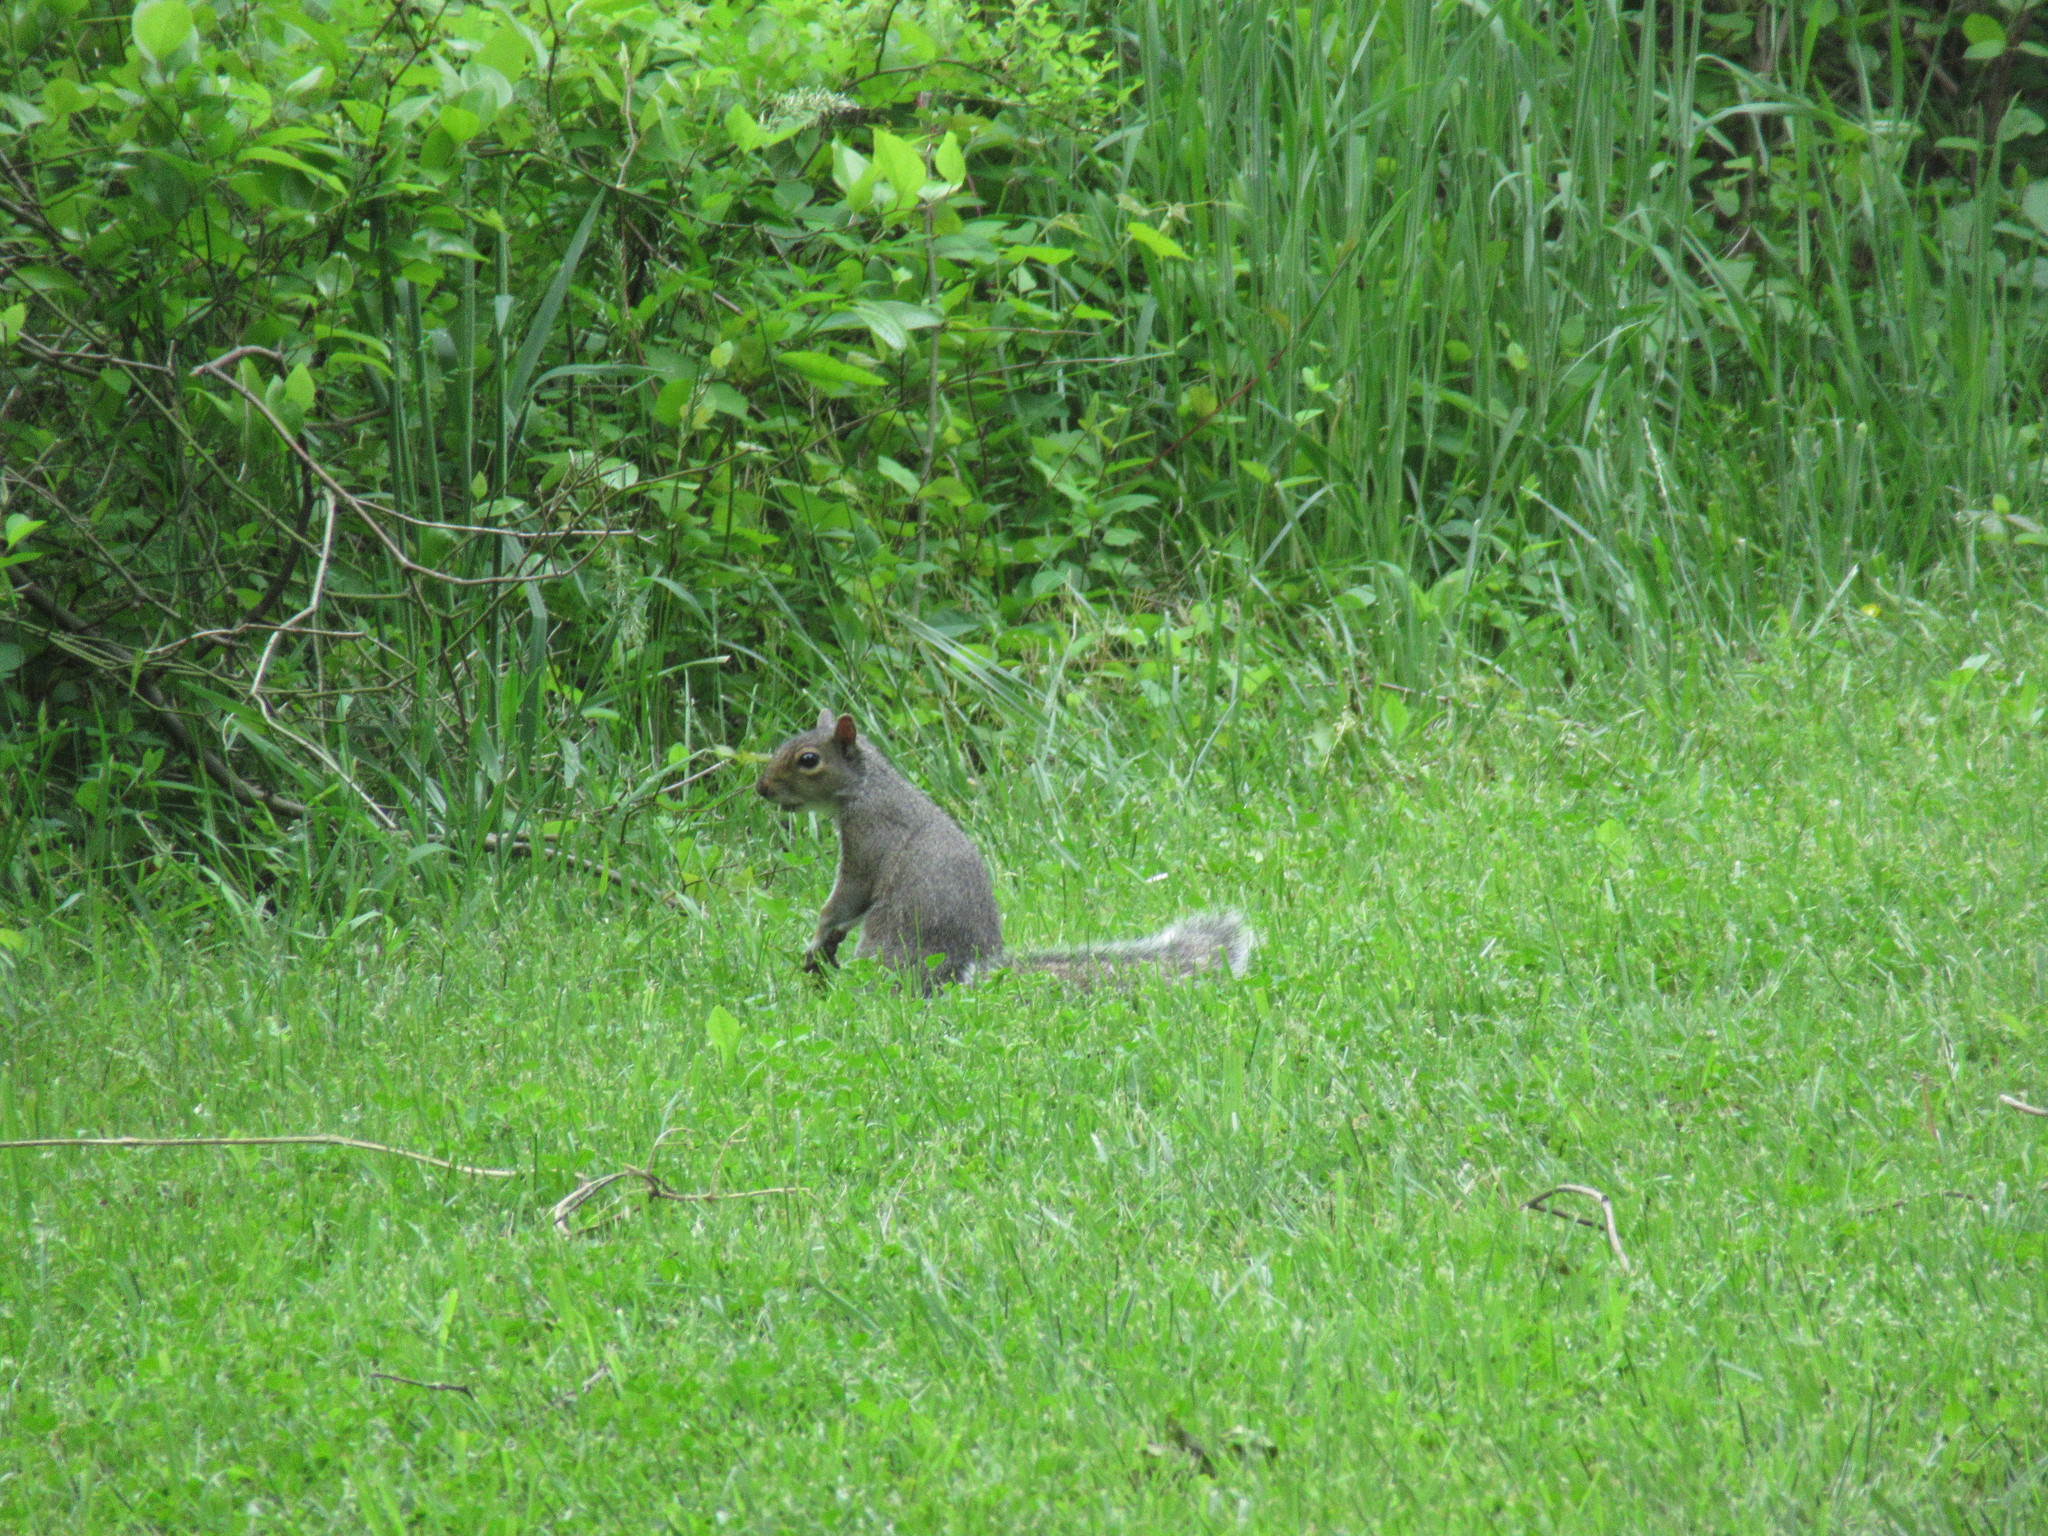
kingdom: Animalia
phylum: Chordata
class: Mammalia
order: Rodentia
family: Sciuridae
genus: Sciurus
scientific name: Sciurus carolinensis
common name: Eastern gray squirrel
